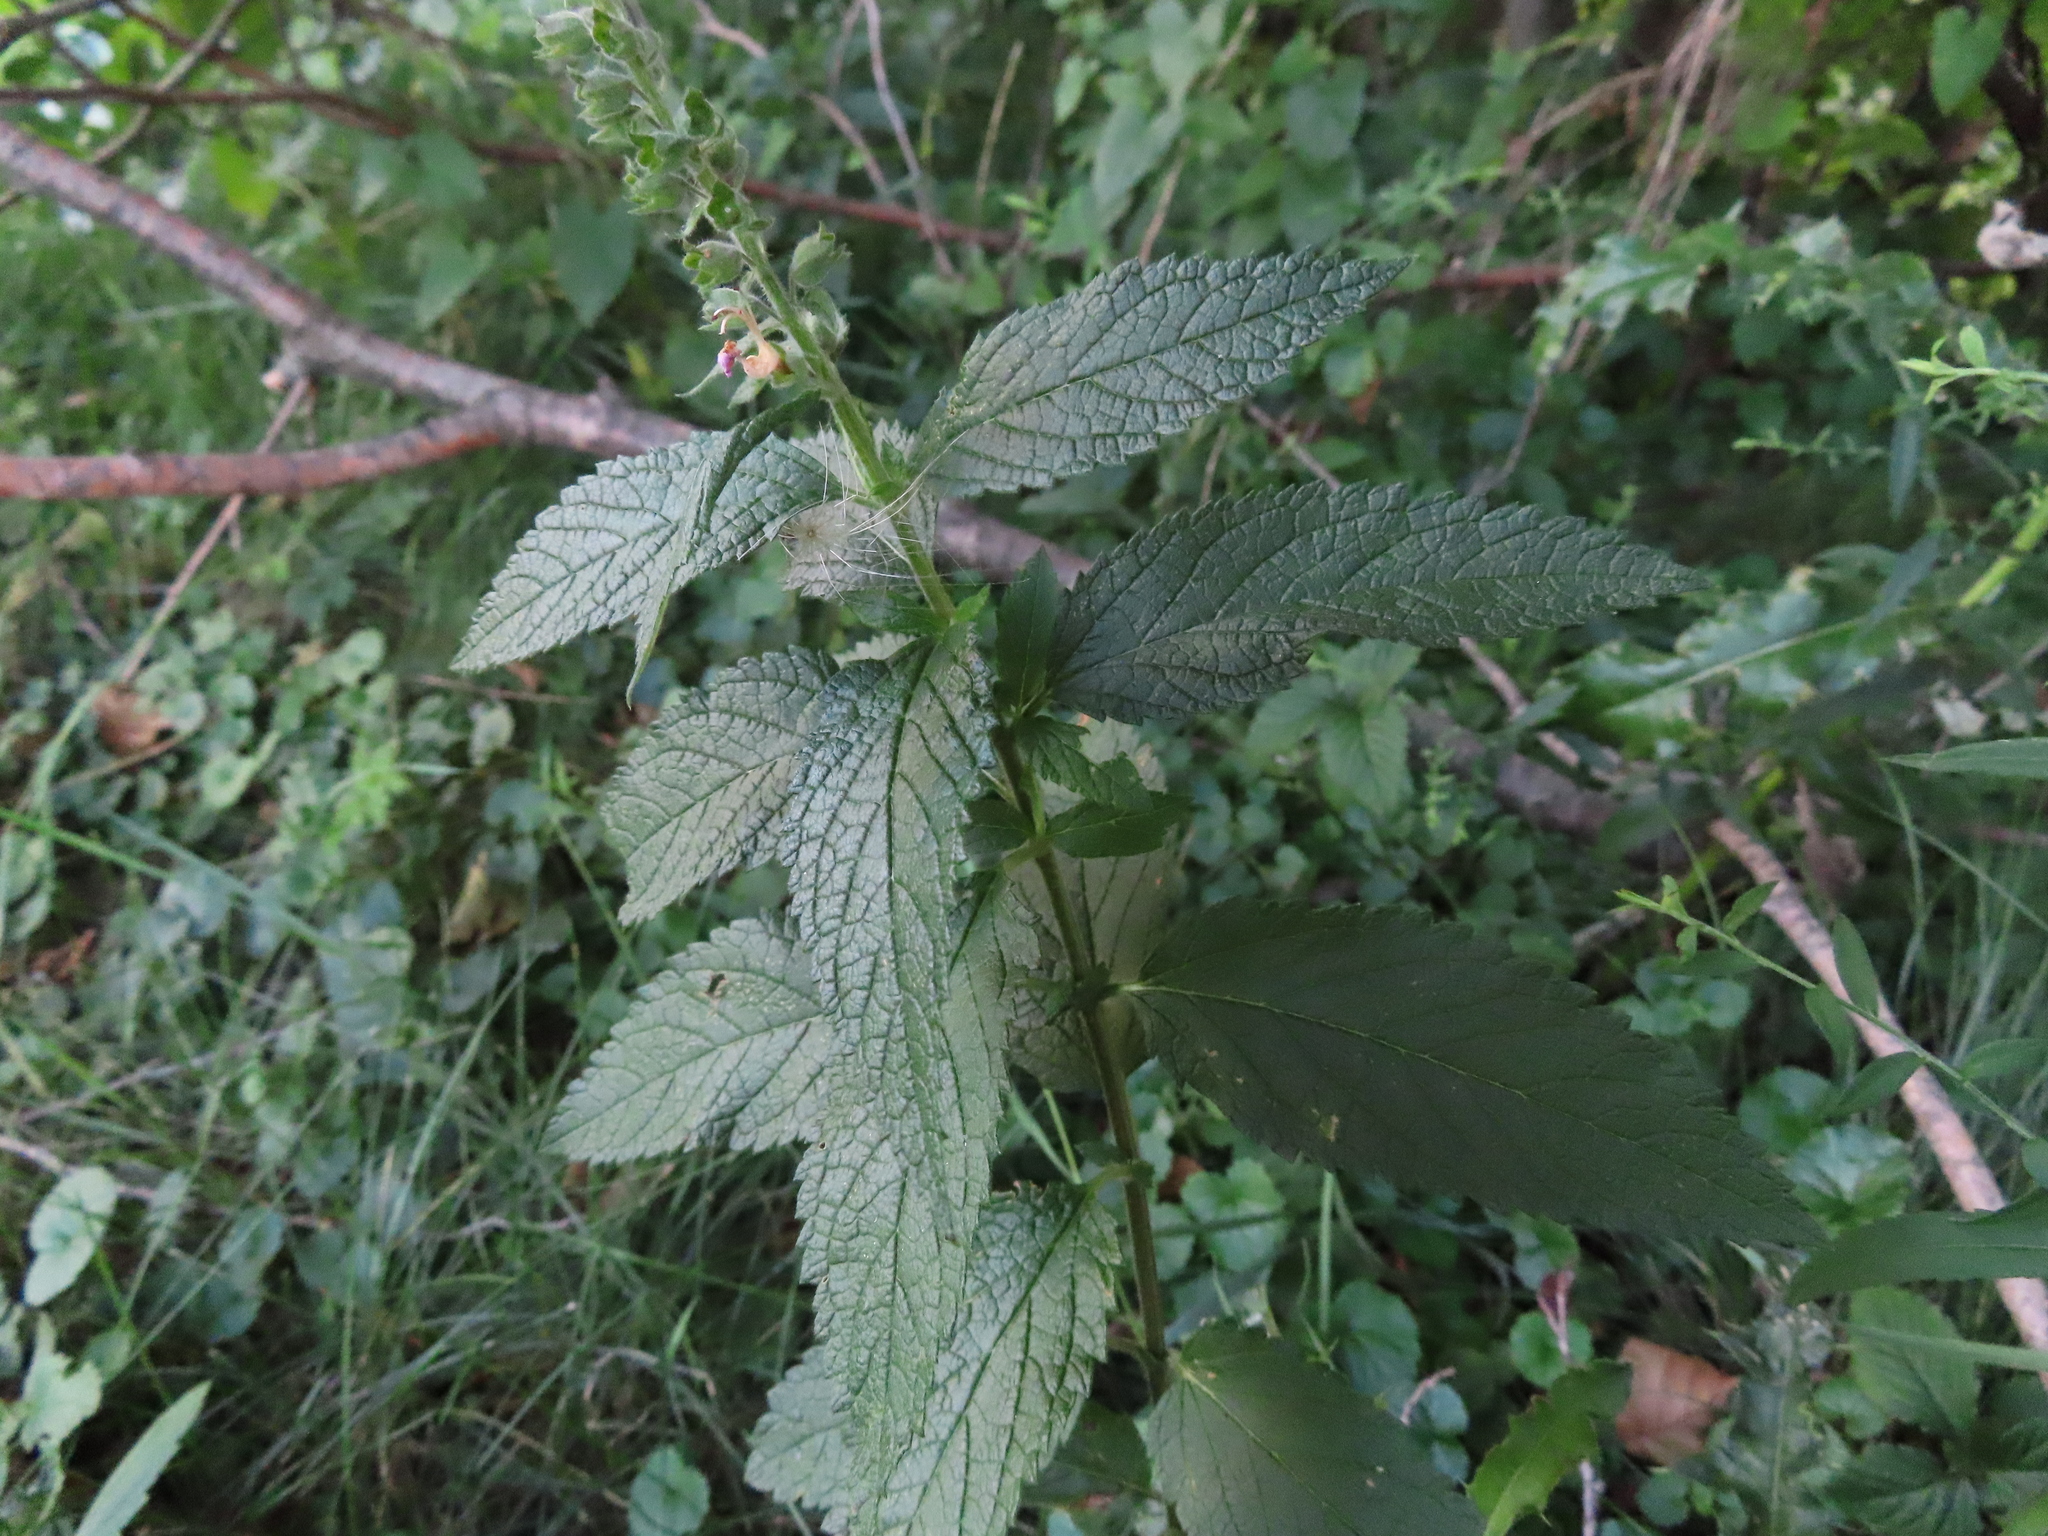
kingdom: Plantae
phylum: Tracheophyta
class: Magnoliopsida
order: Lamiales
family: Lamiaceae
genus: Teucrium
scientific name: Teucrium canadense
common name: American germander
